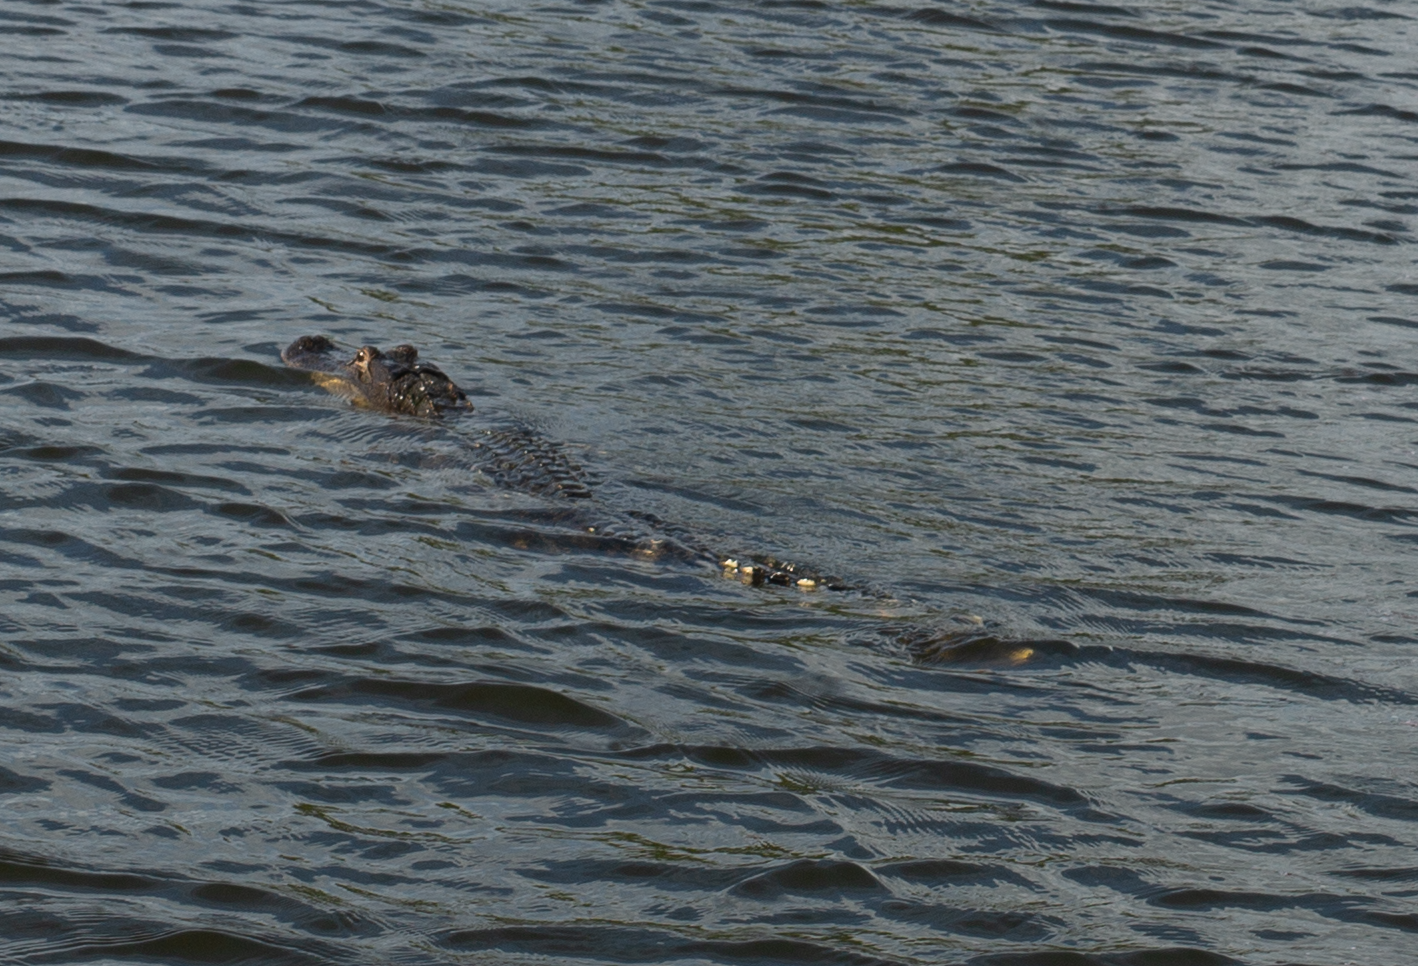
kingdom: Animalia
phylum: Chordata
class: Crocodylia
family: Alligatoridae
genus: Alligator
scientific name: Alligator mississippiensis
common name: American alligator
